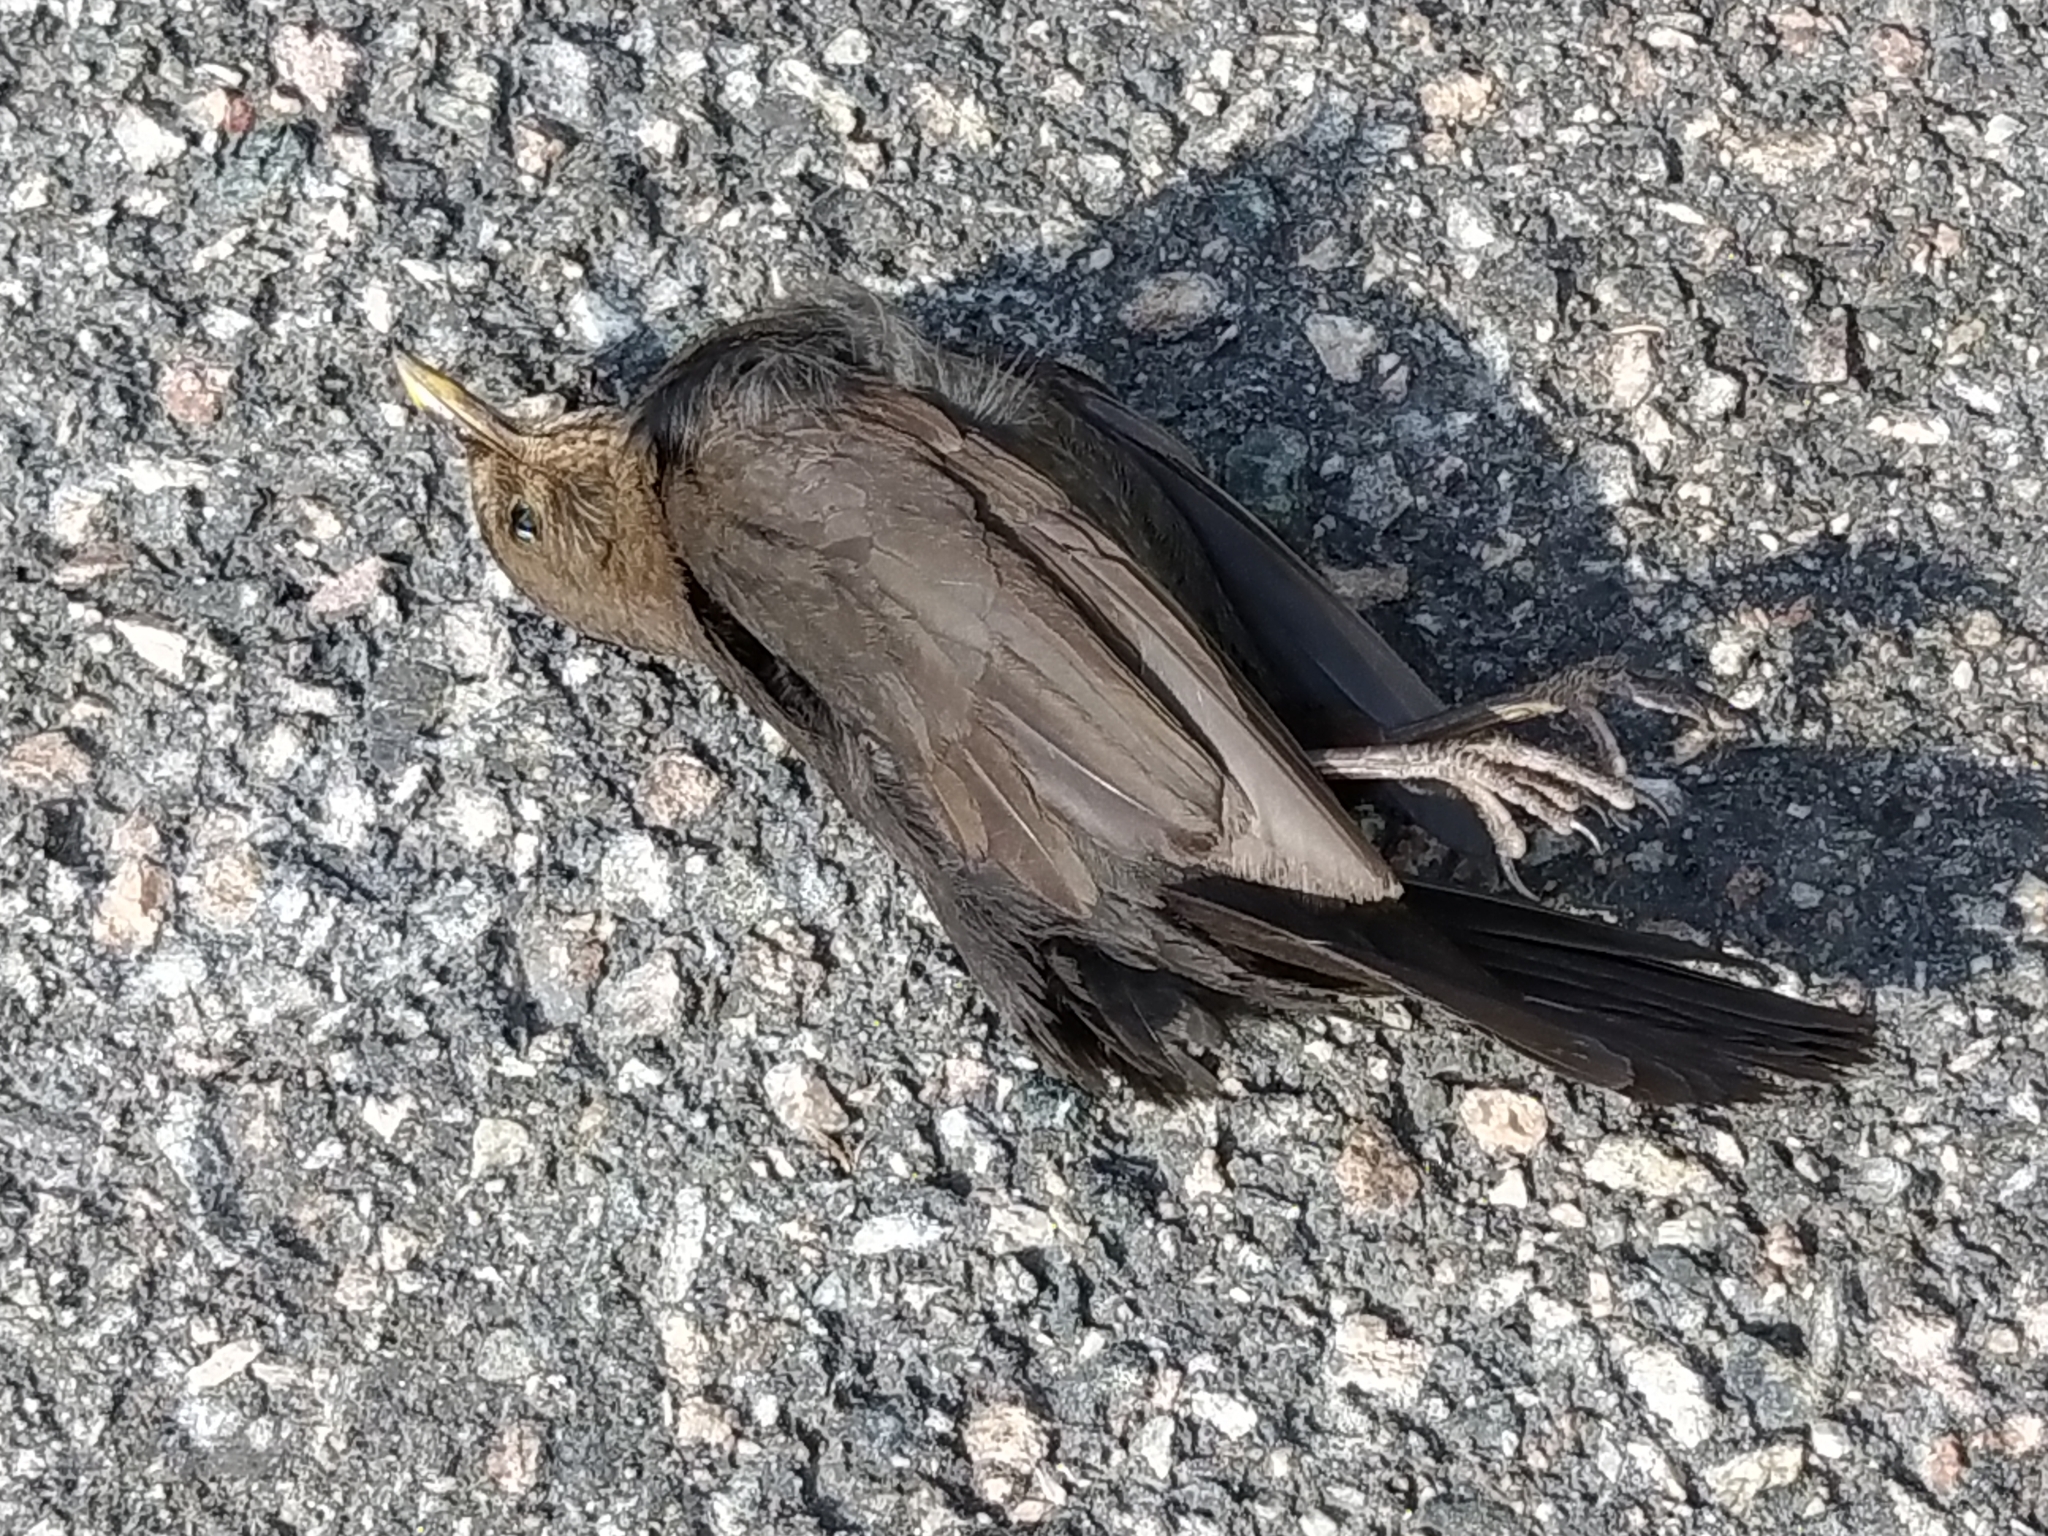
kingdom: Animalia
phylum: Chordata
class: Aves
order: Passeriformes
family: Turdidae
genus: Turdus
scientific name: Turdus merula
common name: Common blackbird
